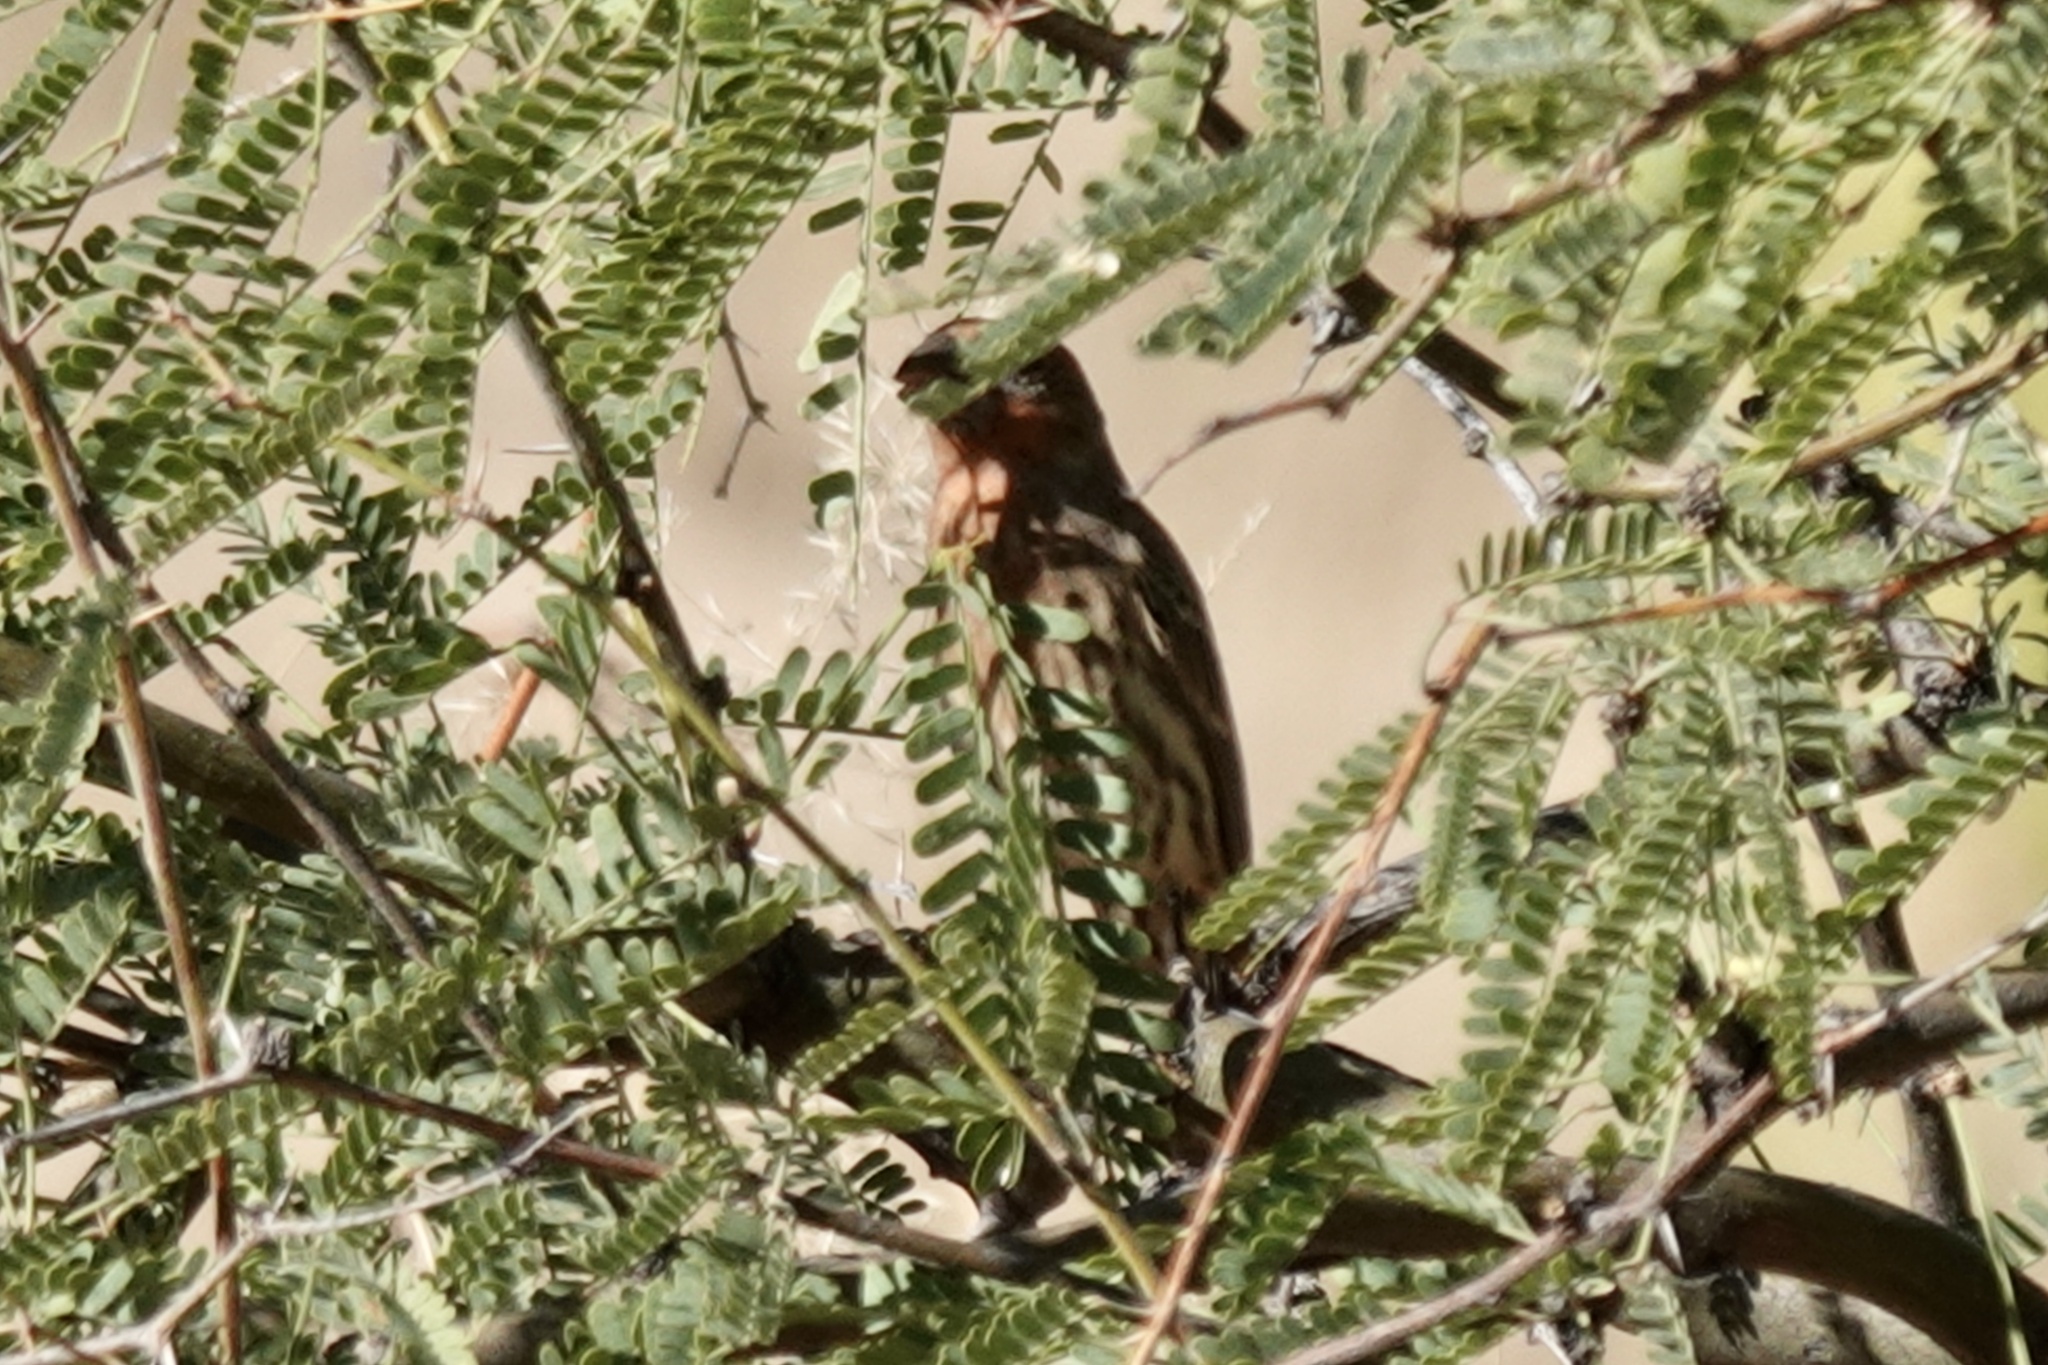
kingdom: Animalia
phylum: Chordata
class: Aves
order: Passeriformes
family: Fringillidae
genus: Haemorhous
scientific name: Haemorhous mexicanus
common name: House finch
